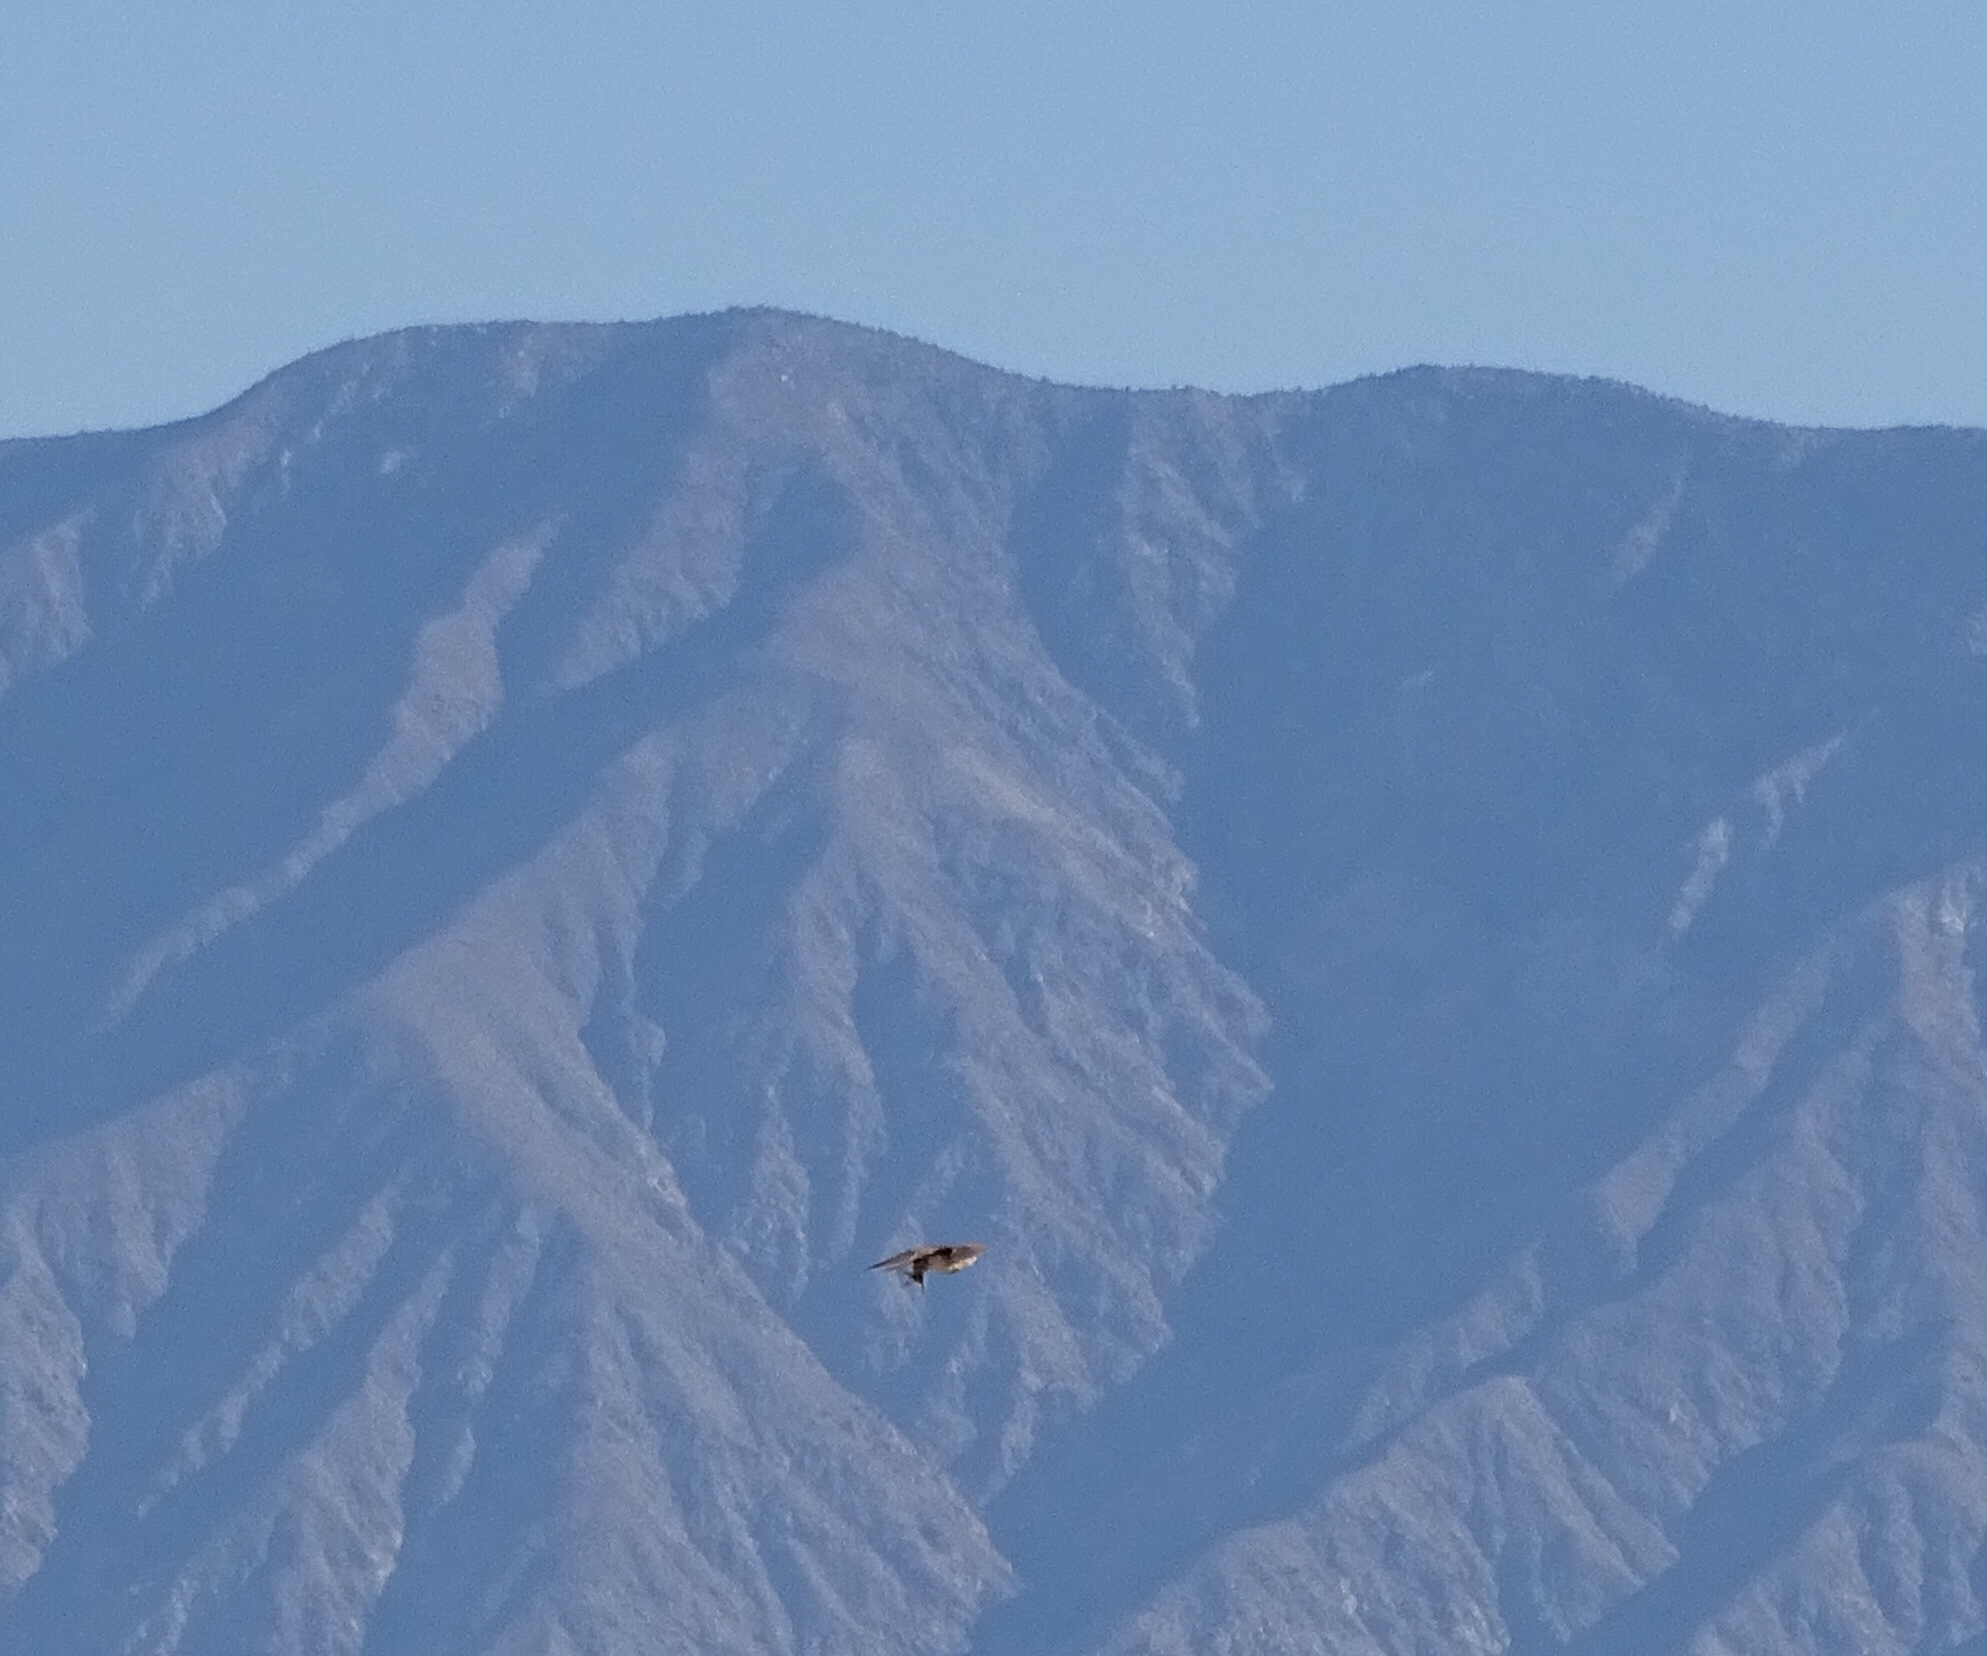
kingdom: Animalia
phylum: Chordata
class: Aves
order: Falconiformes
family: Falconidae
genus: Falco
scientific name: Falco sparverius
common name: American kestrel
